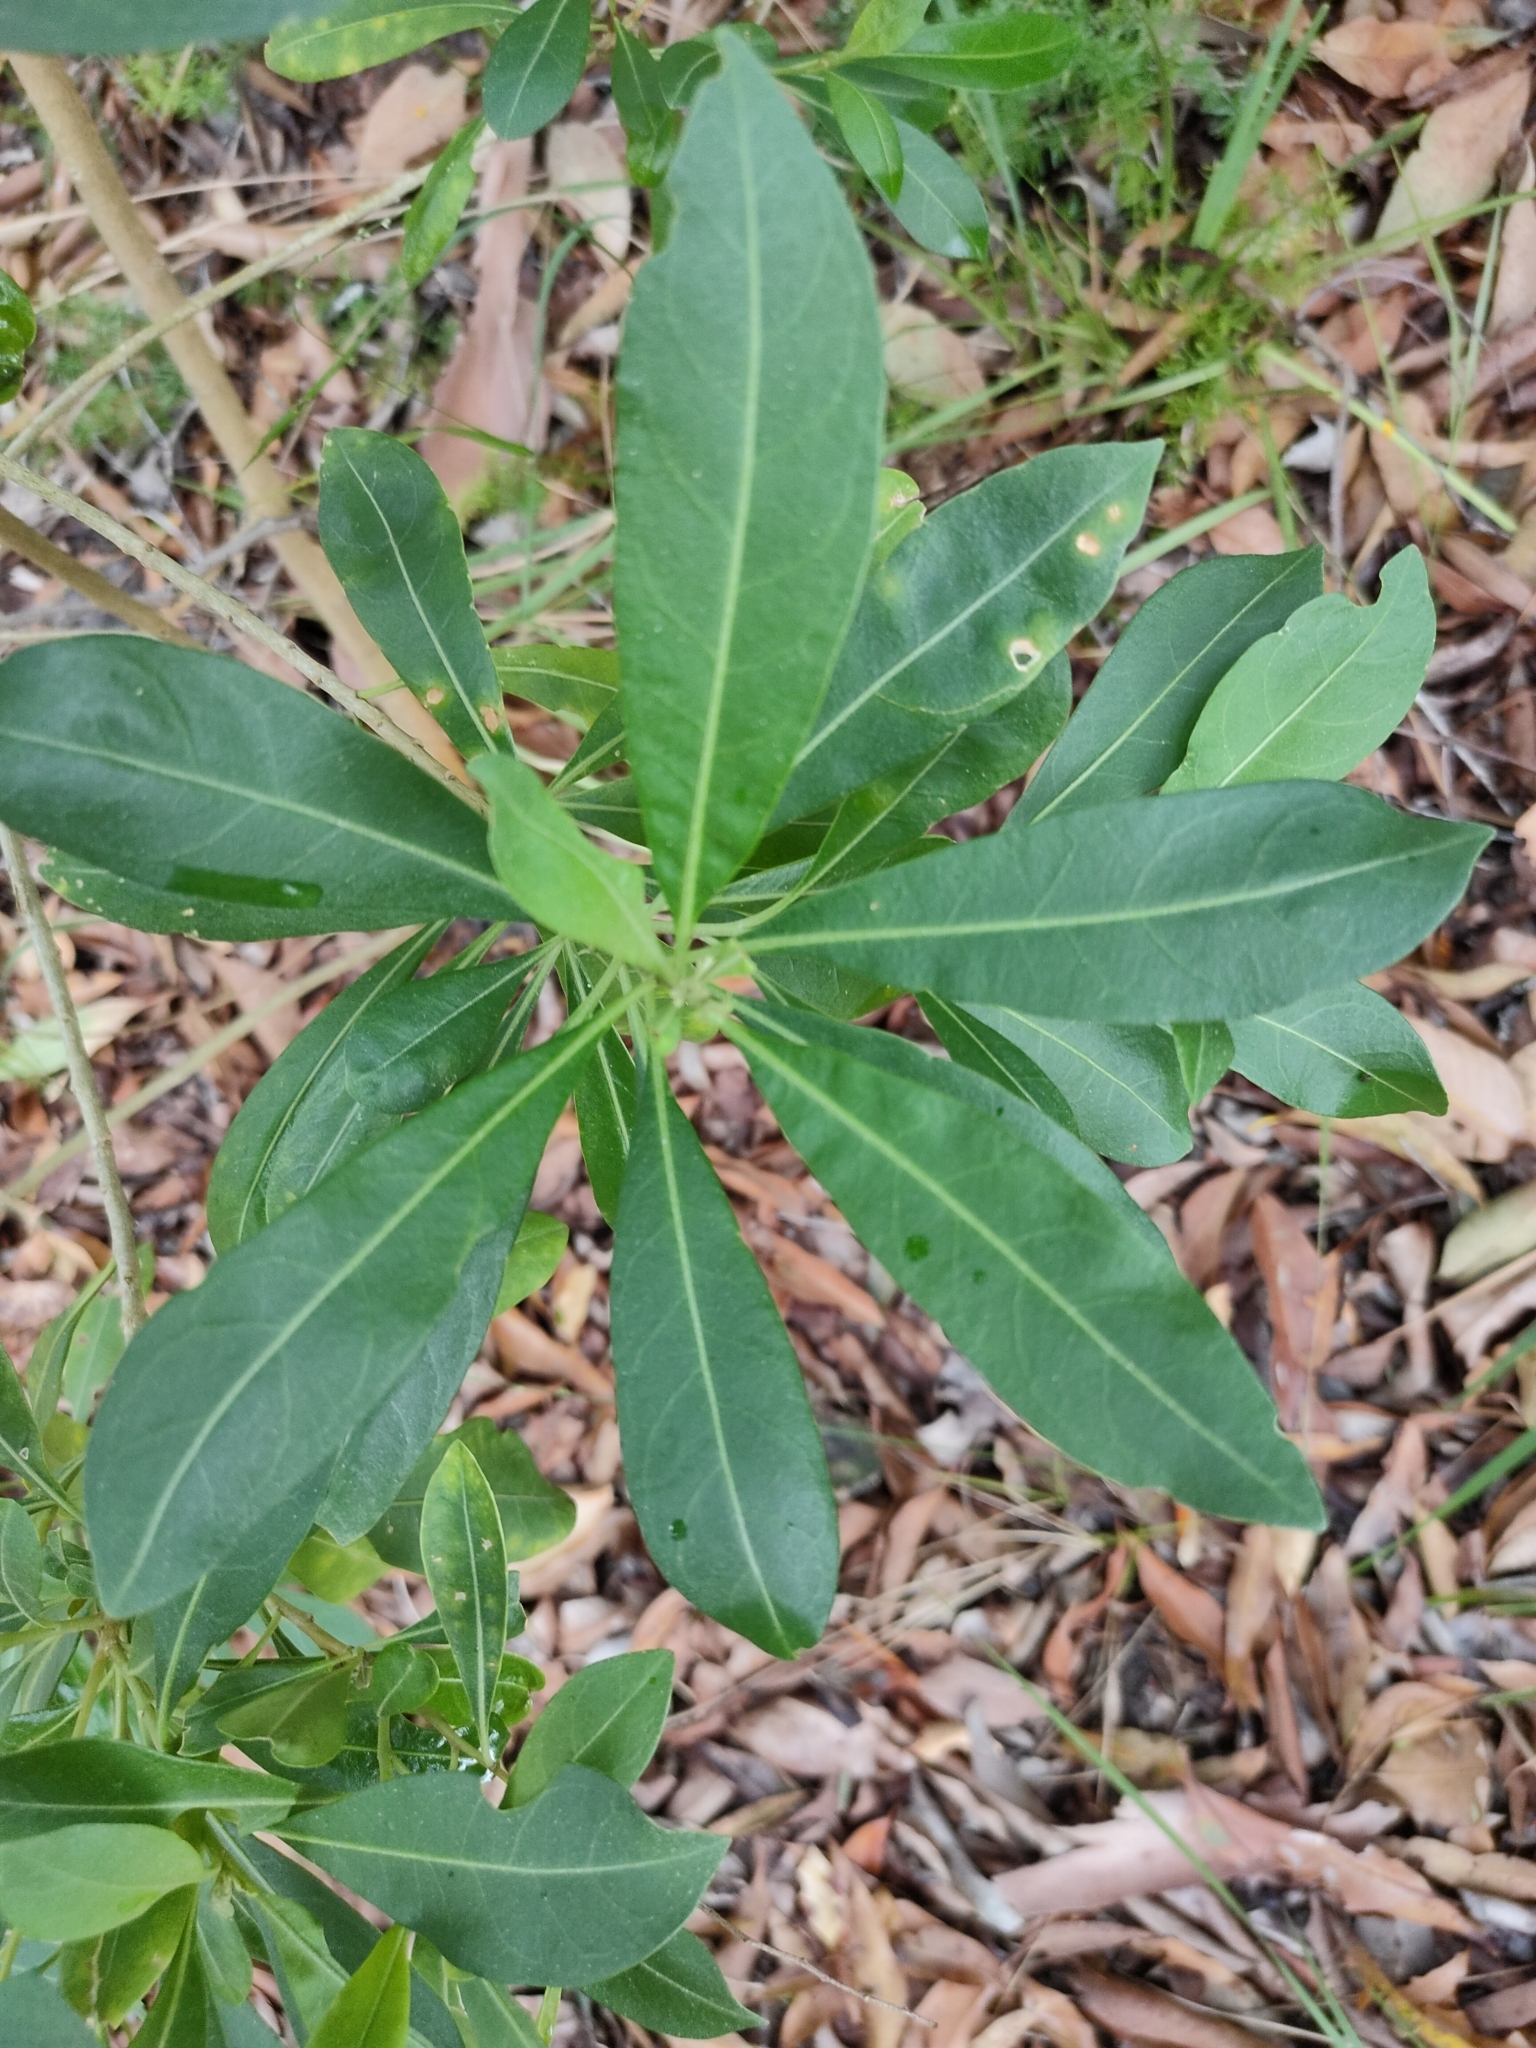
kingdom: Plantae
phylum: Tracheophyta
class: Magnoliopsida
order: Solanales
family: Solanaceae
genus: Duboisia
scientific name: Duboisia myoporoides
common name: Corkwoodtree
